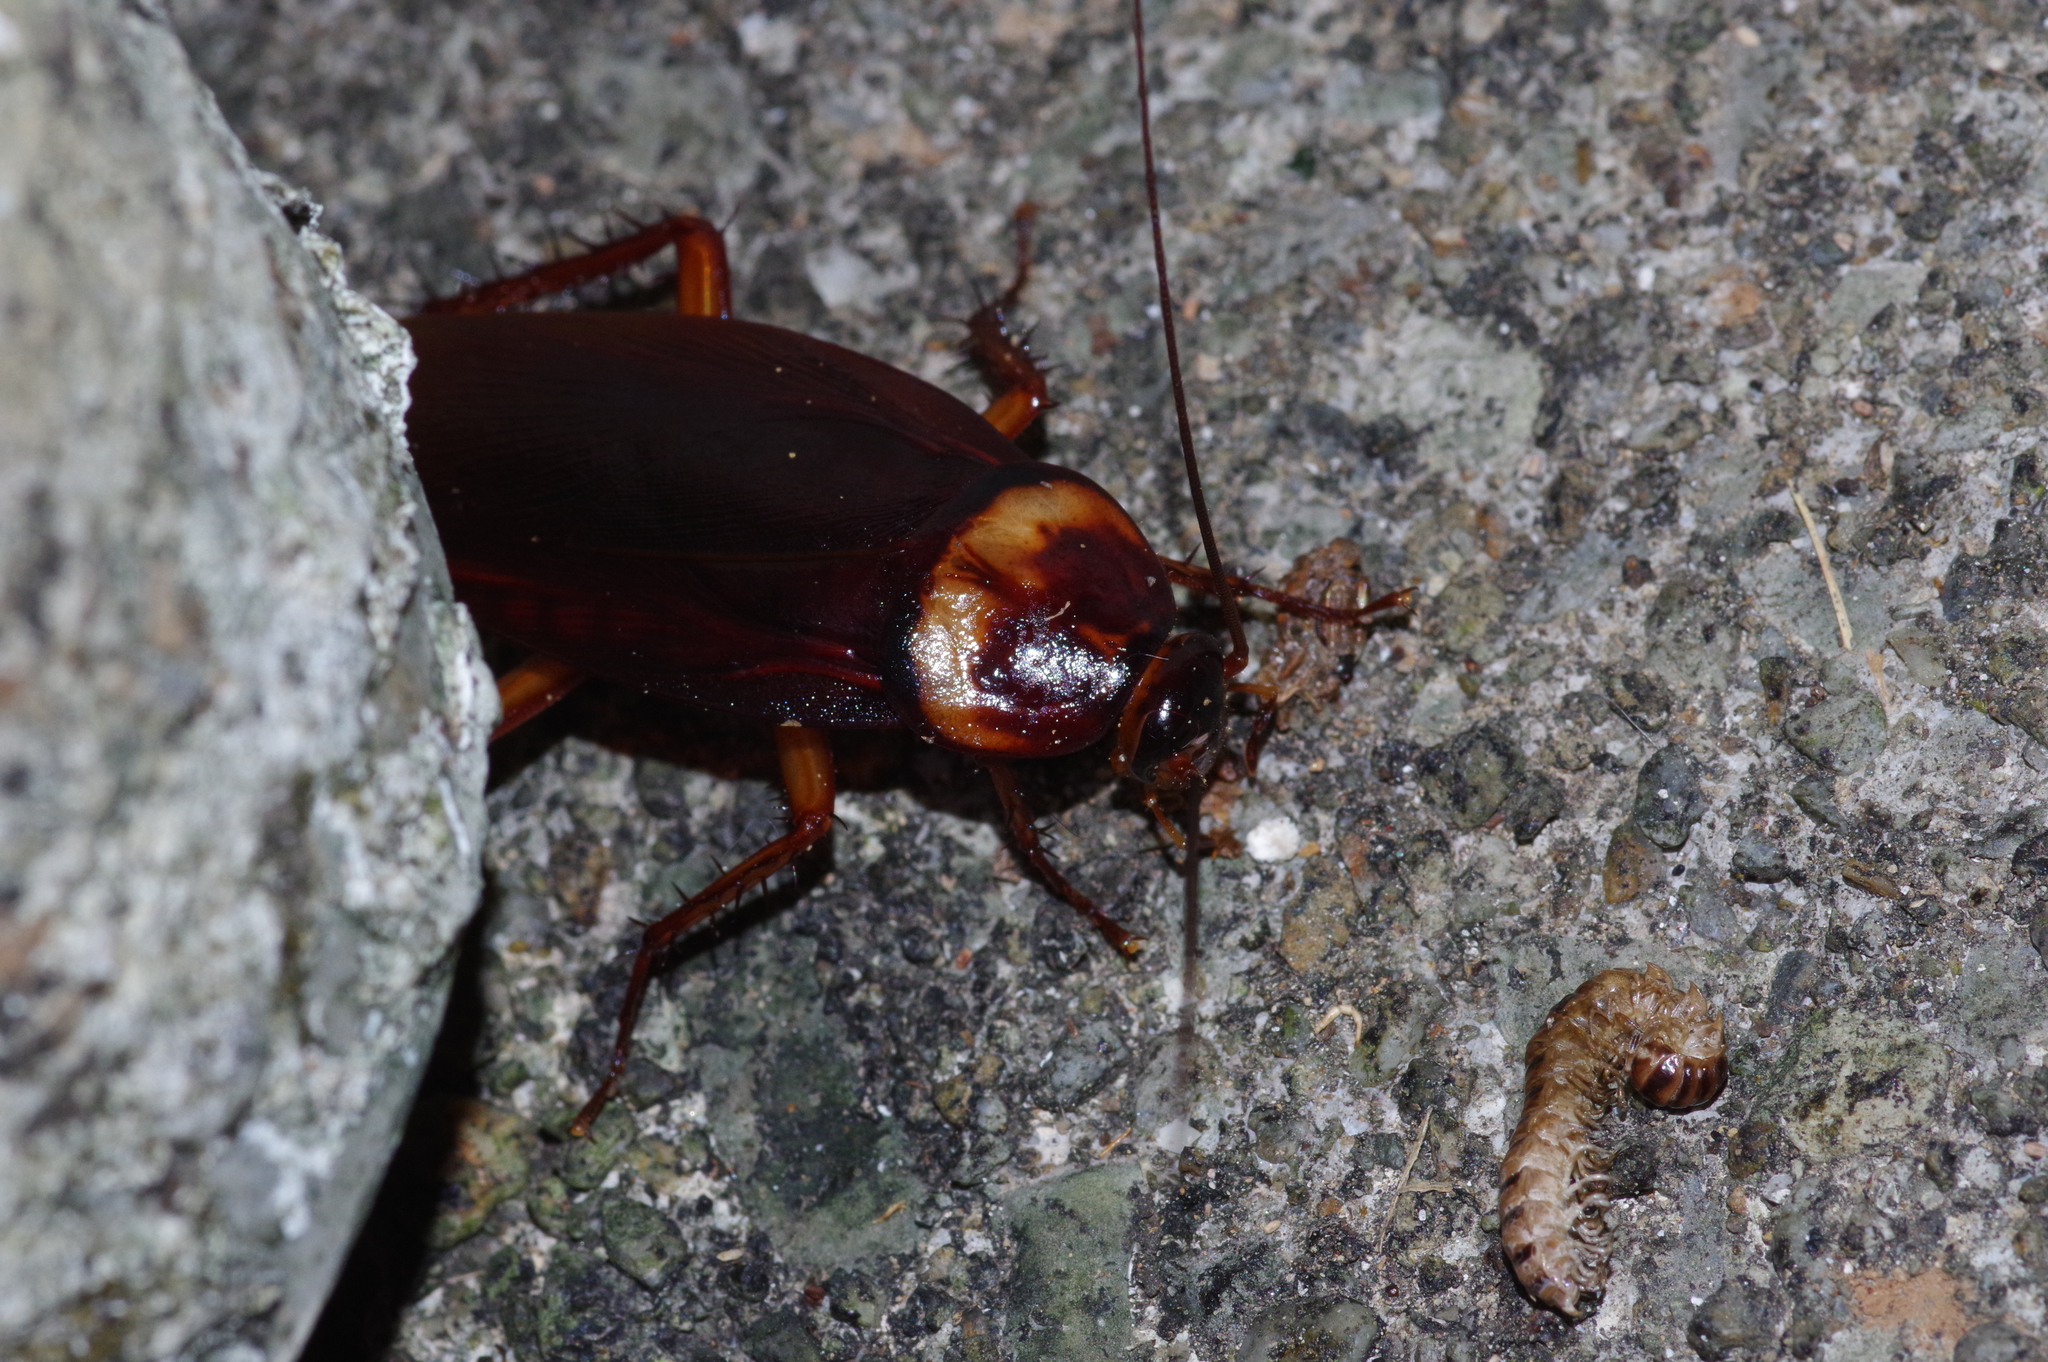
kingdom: Animalia
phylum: Arthropoda
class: Insecta
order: Blattodea
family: Blattidae
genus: Periplaneta
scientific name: Periplaneta americana
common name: American cockroach
